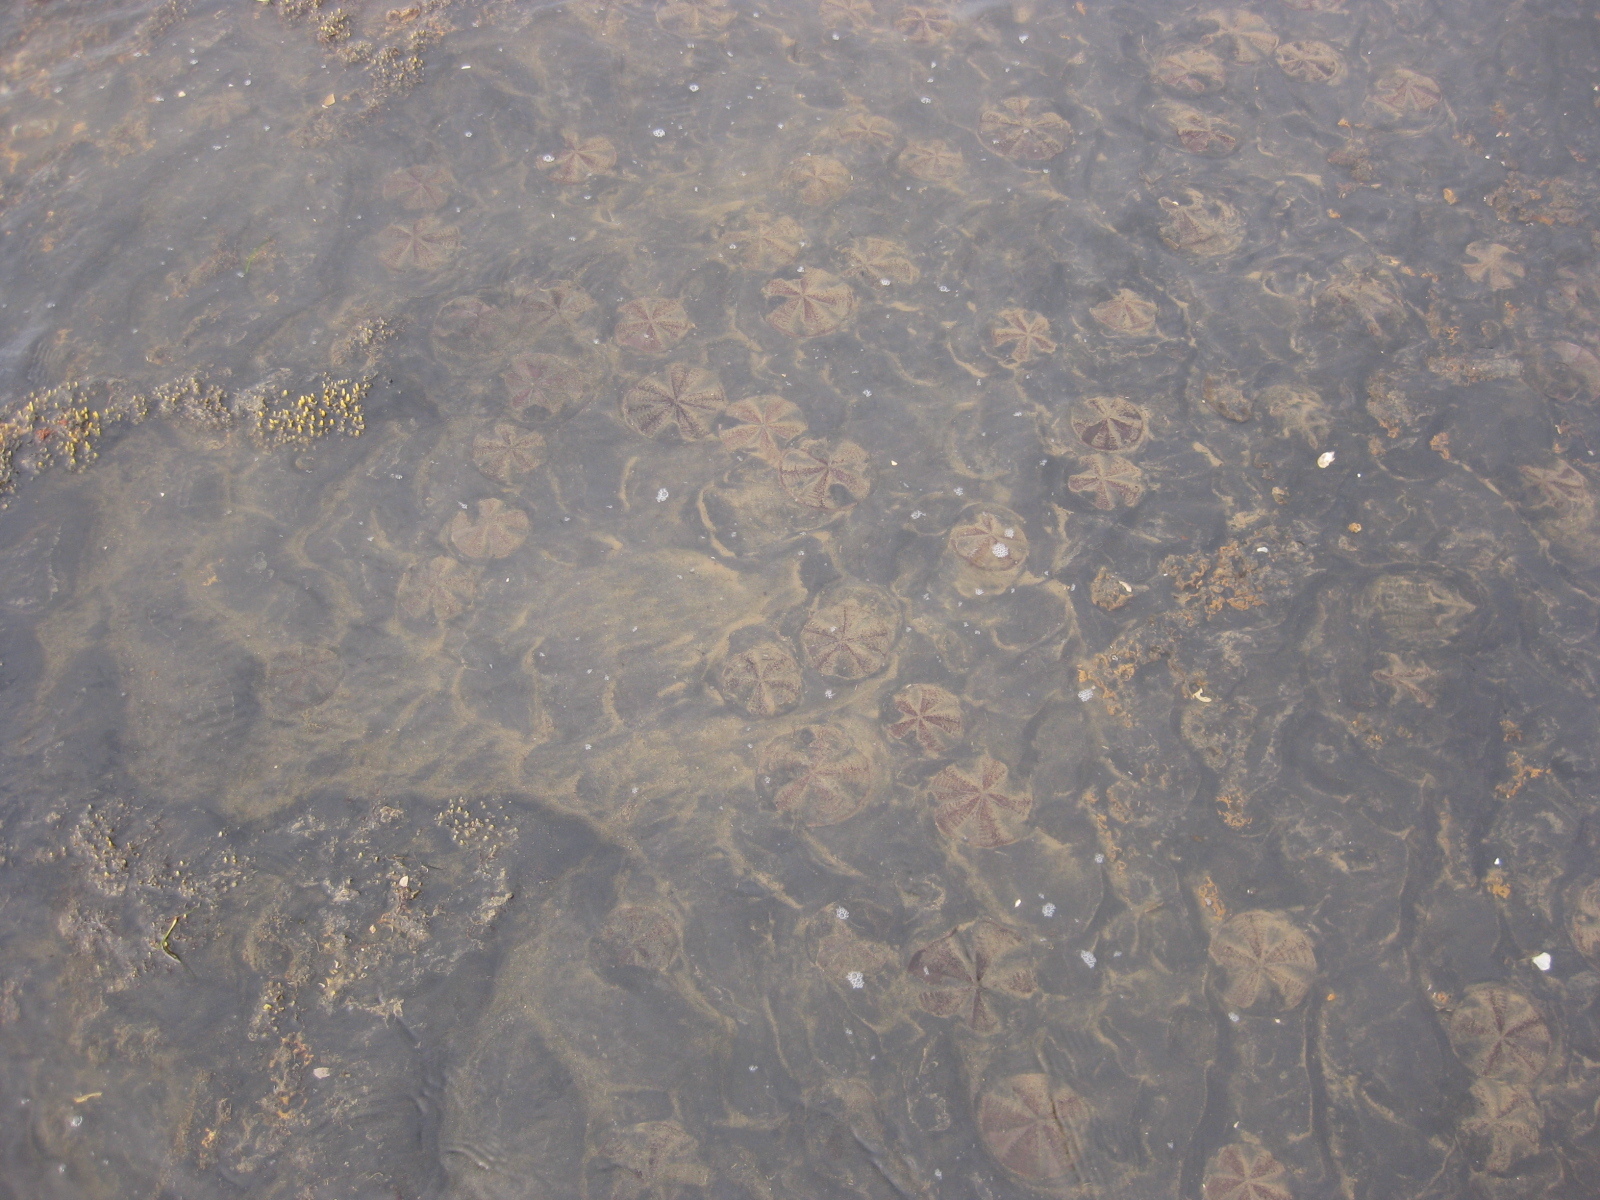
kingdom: Animalia
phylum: Echinodermata
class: Echinoidea
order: Clypeasteroida
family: Clypeasteridae
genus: Fellaster
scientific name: Fellaster zelandiae
